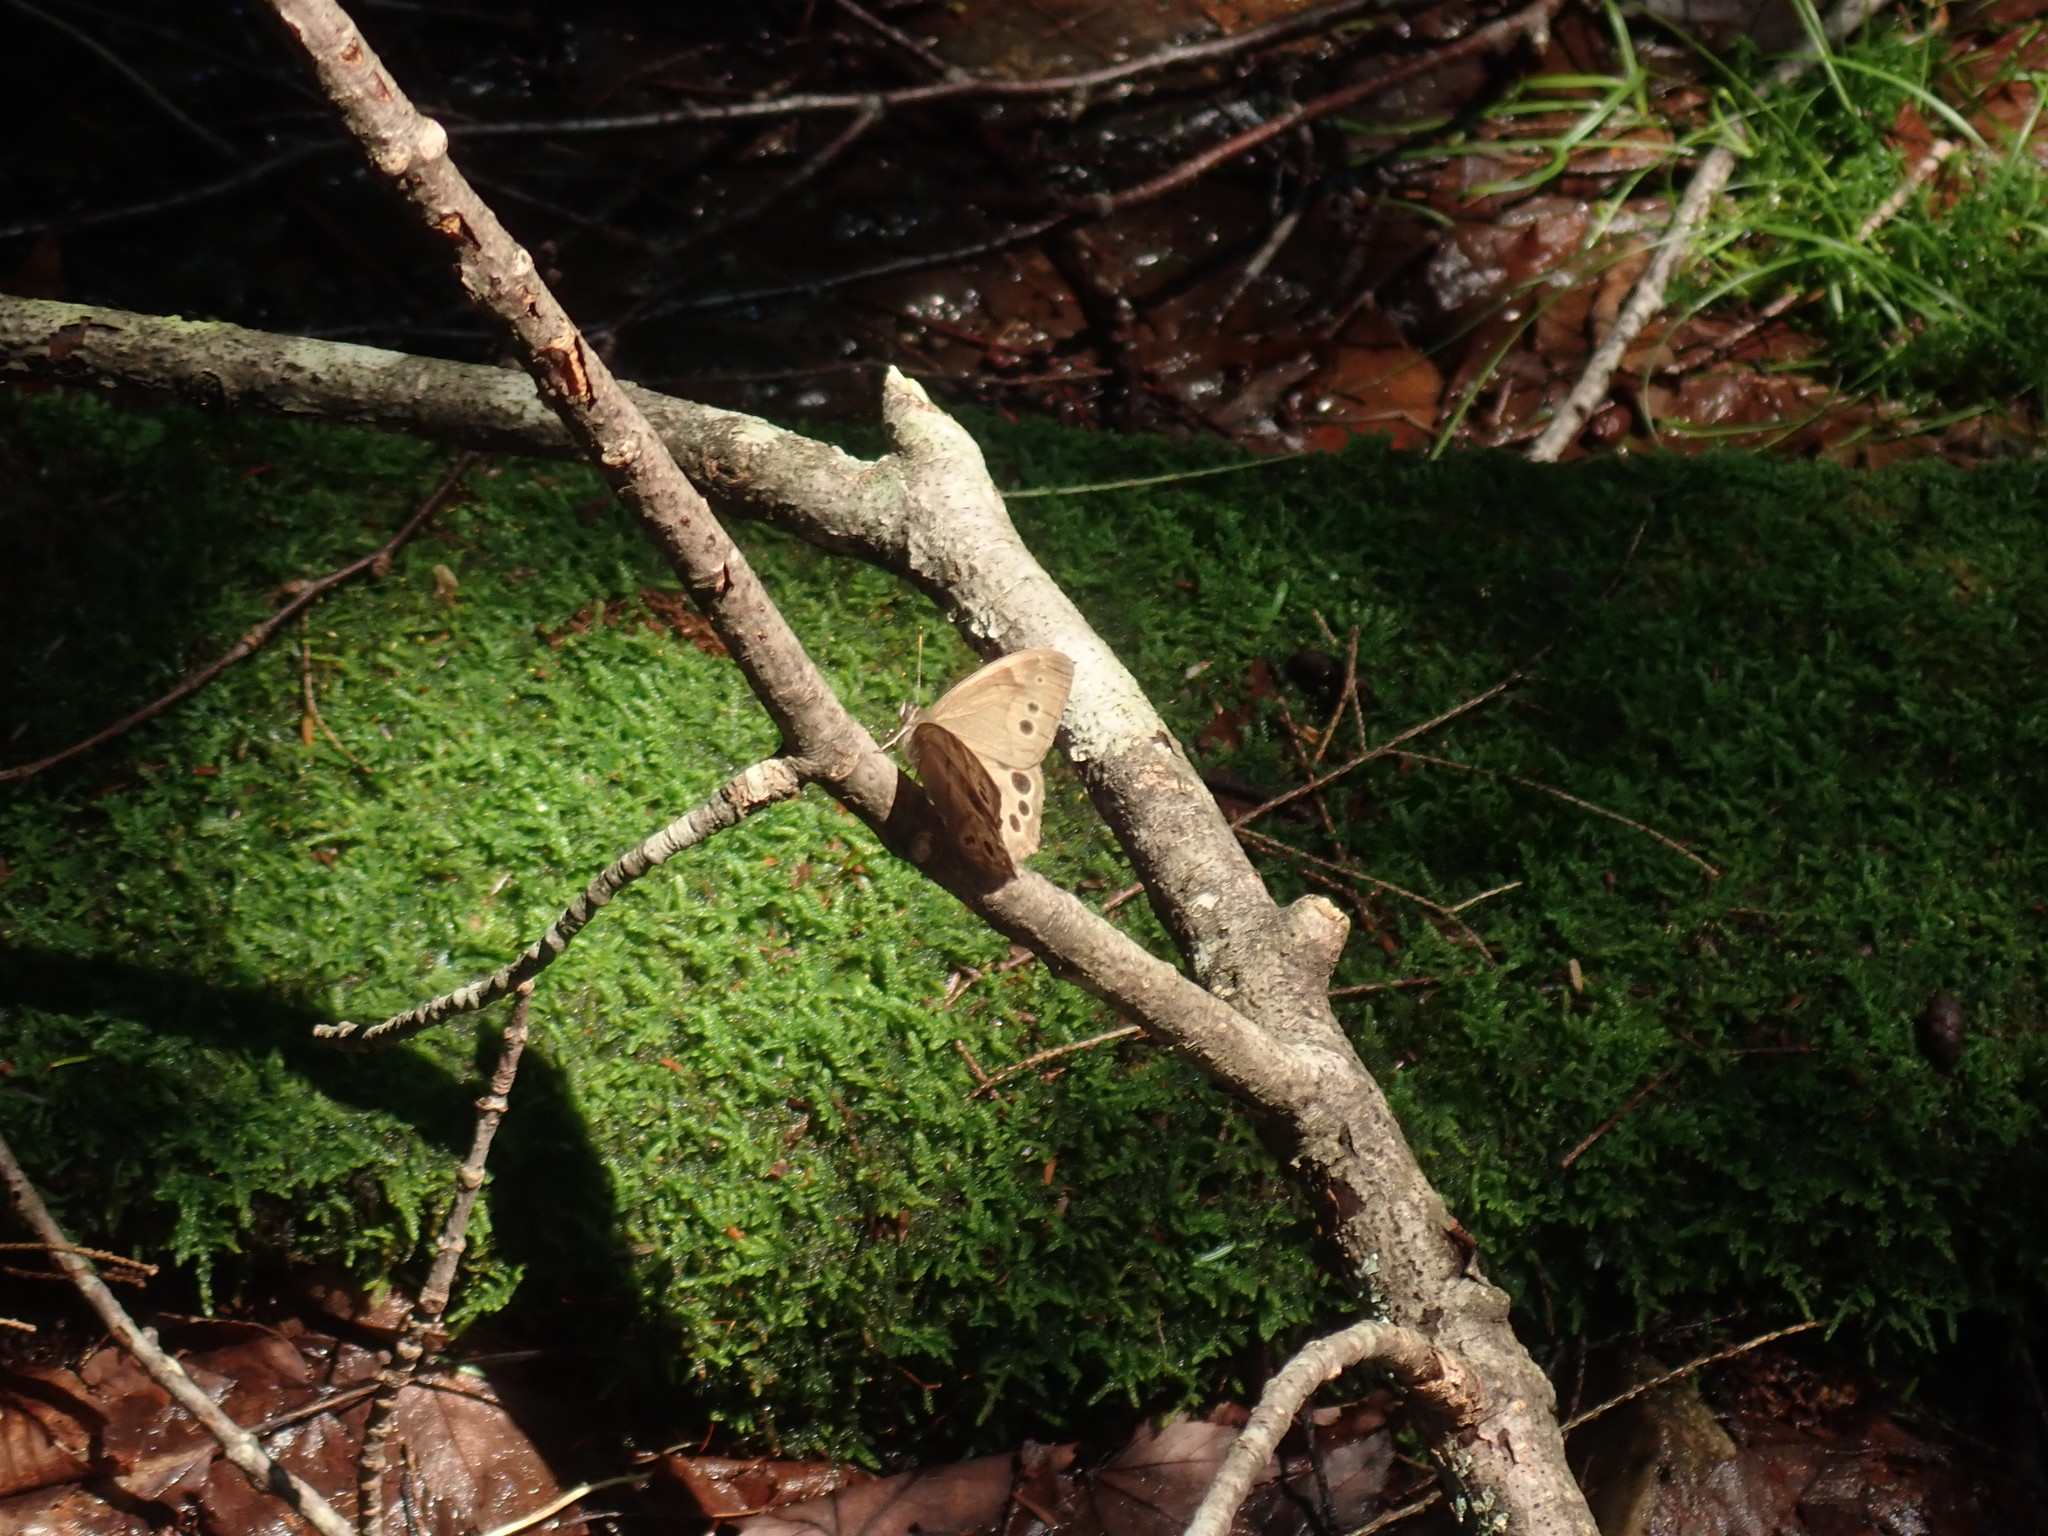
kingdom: Animalia
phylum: Arthropoda
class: Insecta
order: Lepidoptera
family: Nymphalidae
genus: Lethe
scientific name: Lethe anthedon
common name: Northern pearly-eye
